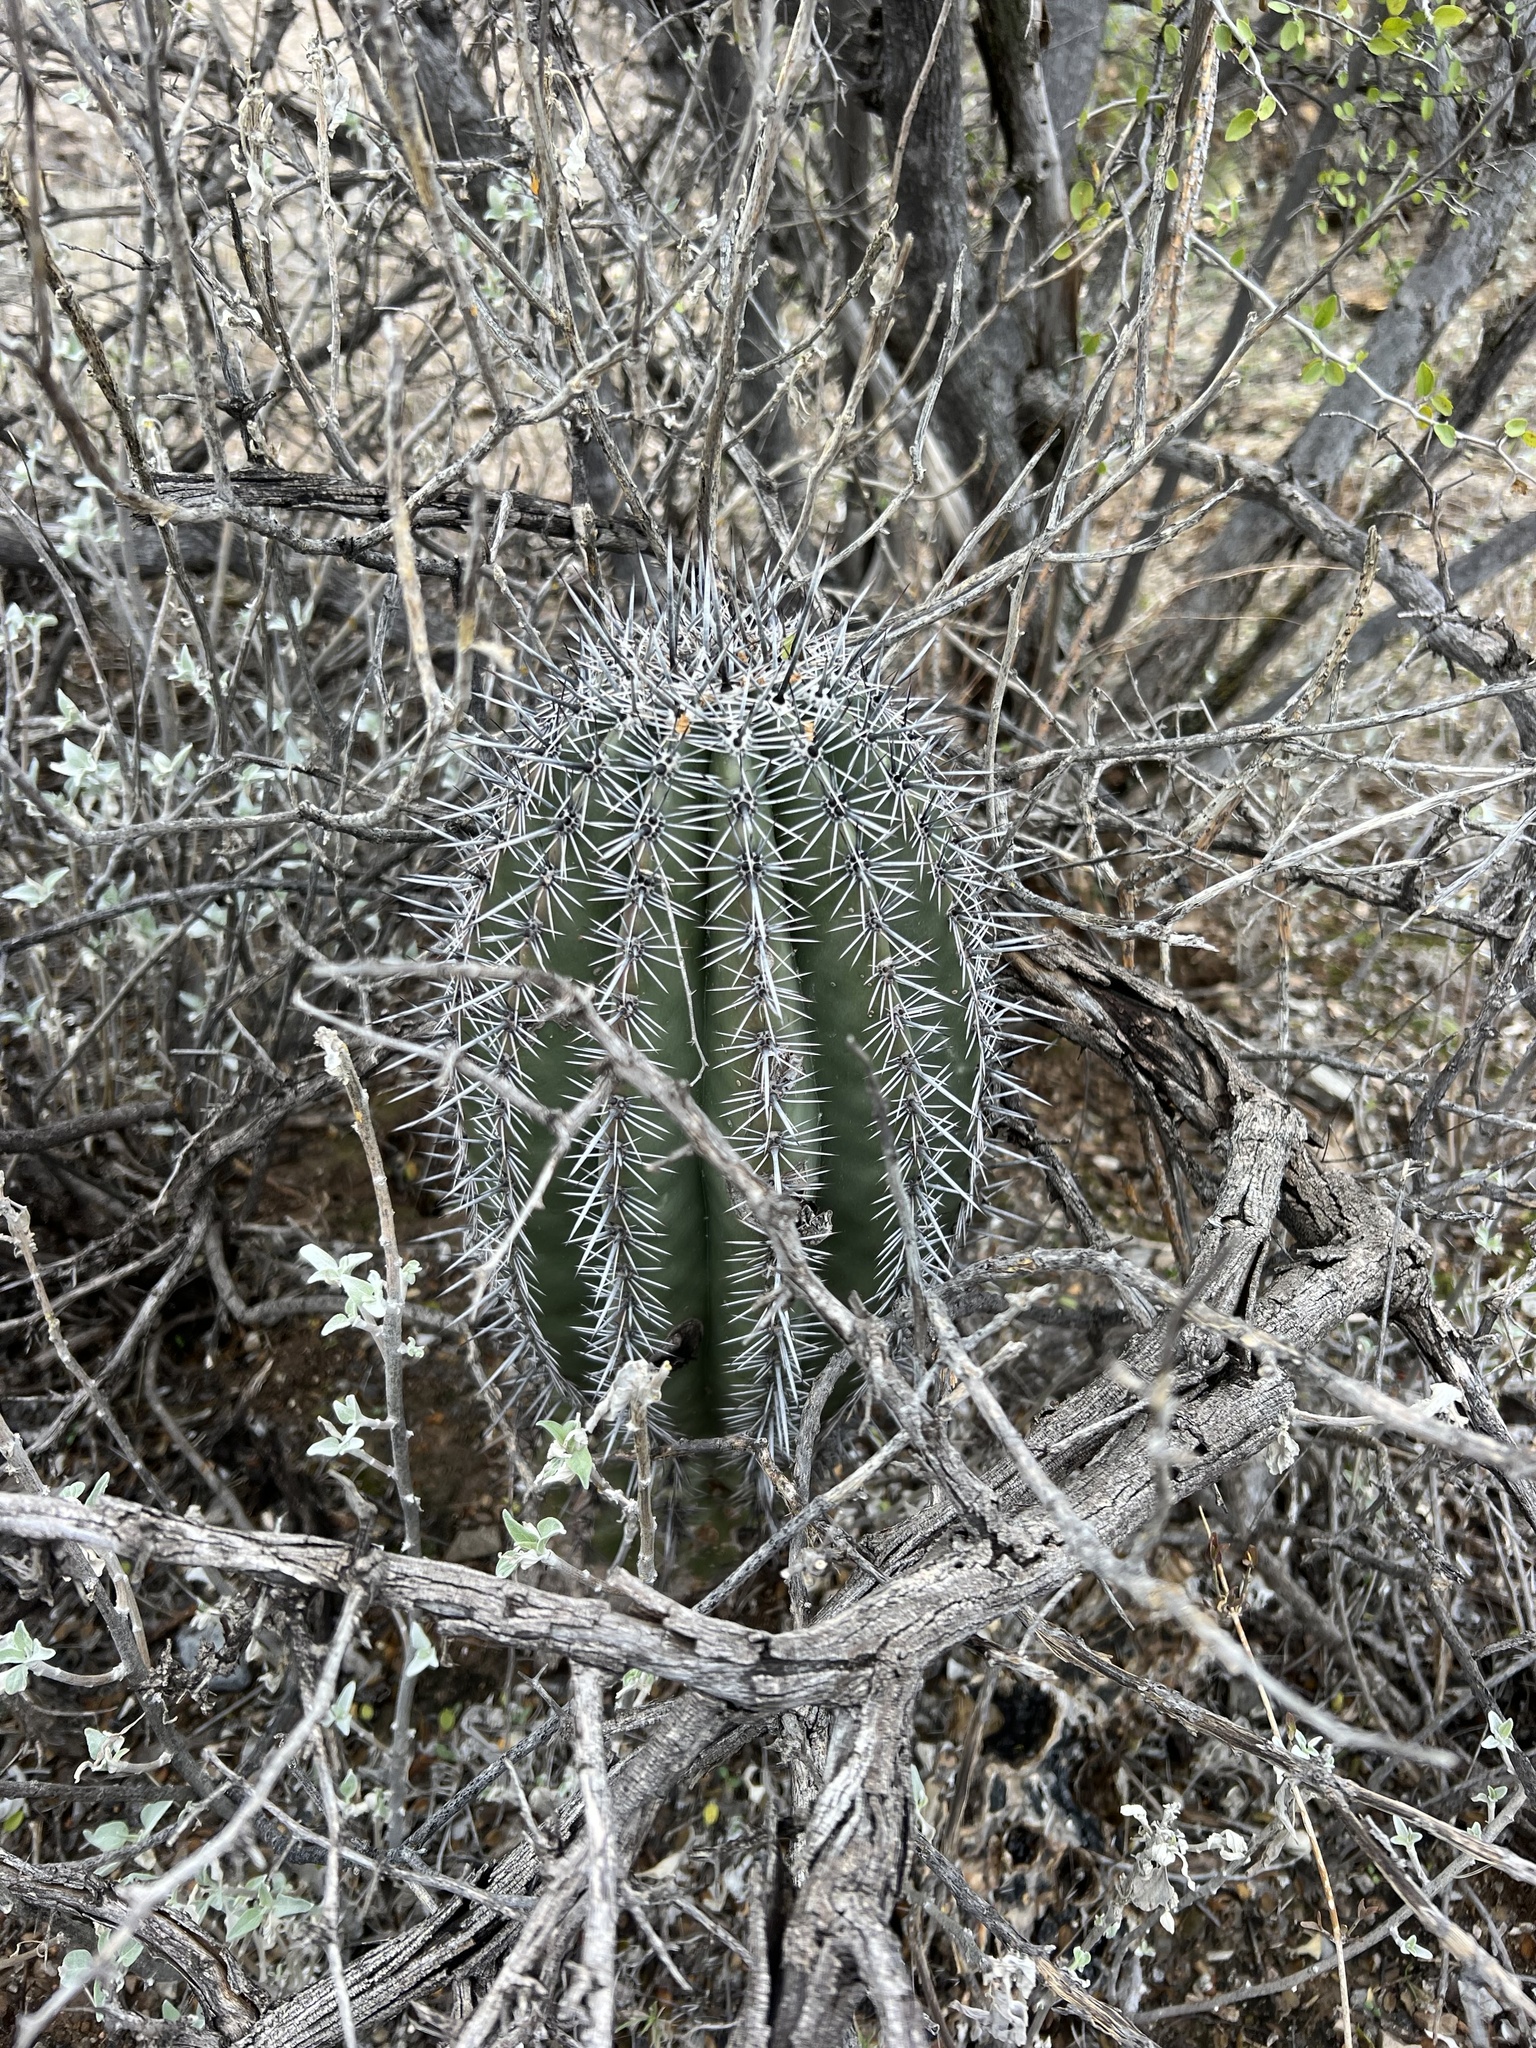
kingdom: Plantae
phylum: Tracheophyta
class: Magnoliopsida
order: Caryophyllales
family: Cactaceae
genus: Carnegiea
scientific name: Carnegiea gigantea
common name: Saguaro
